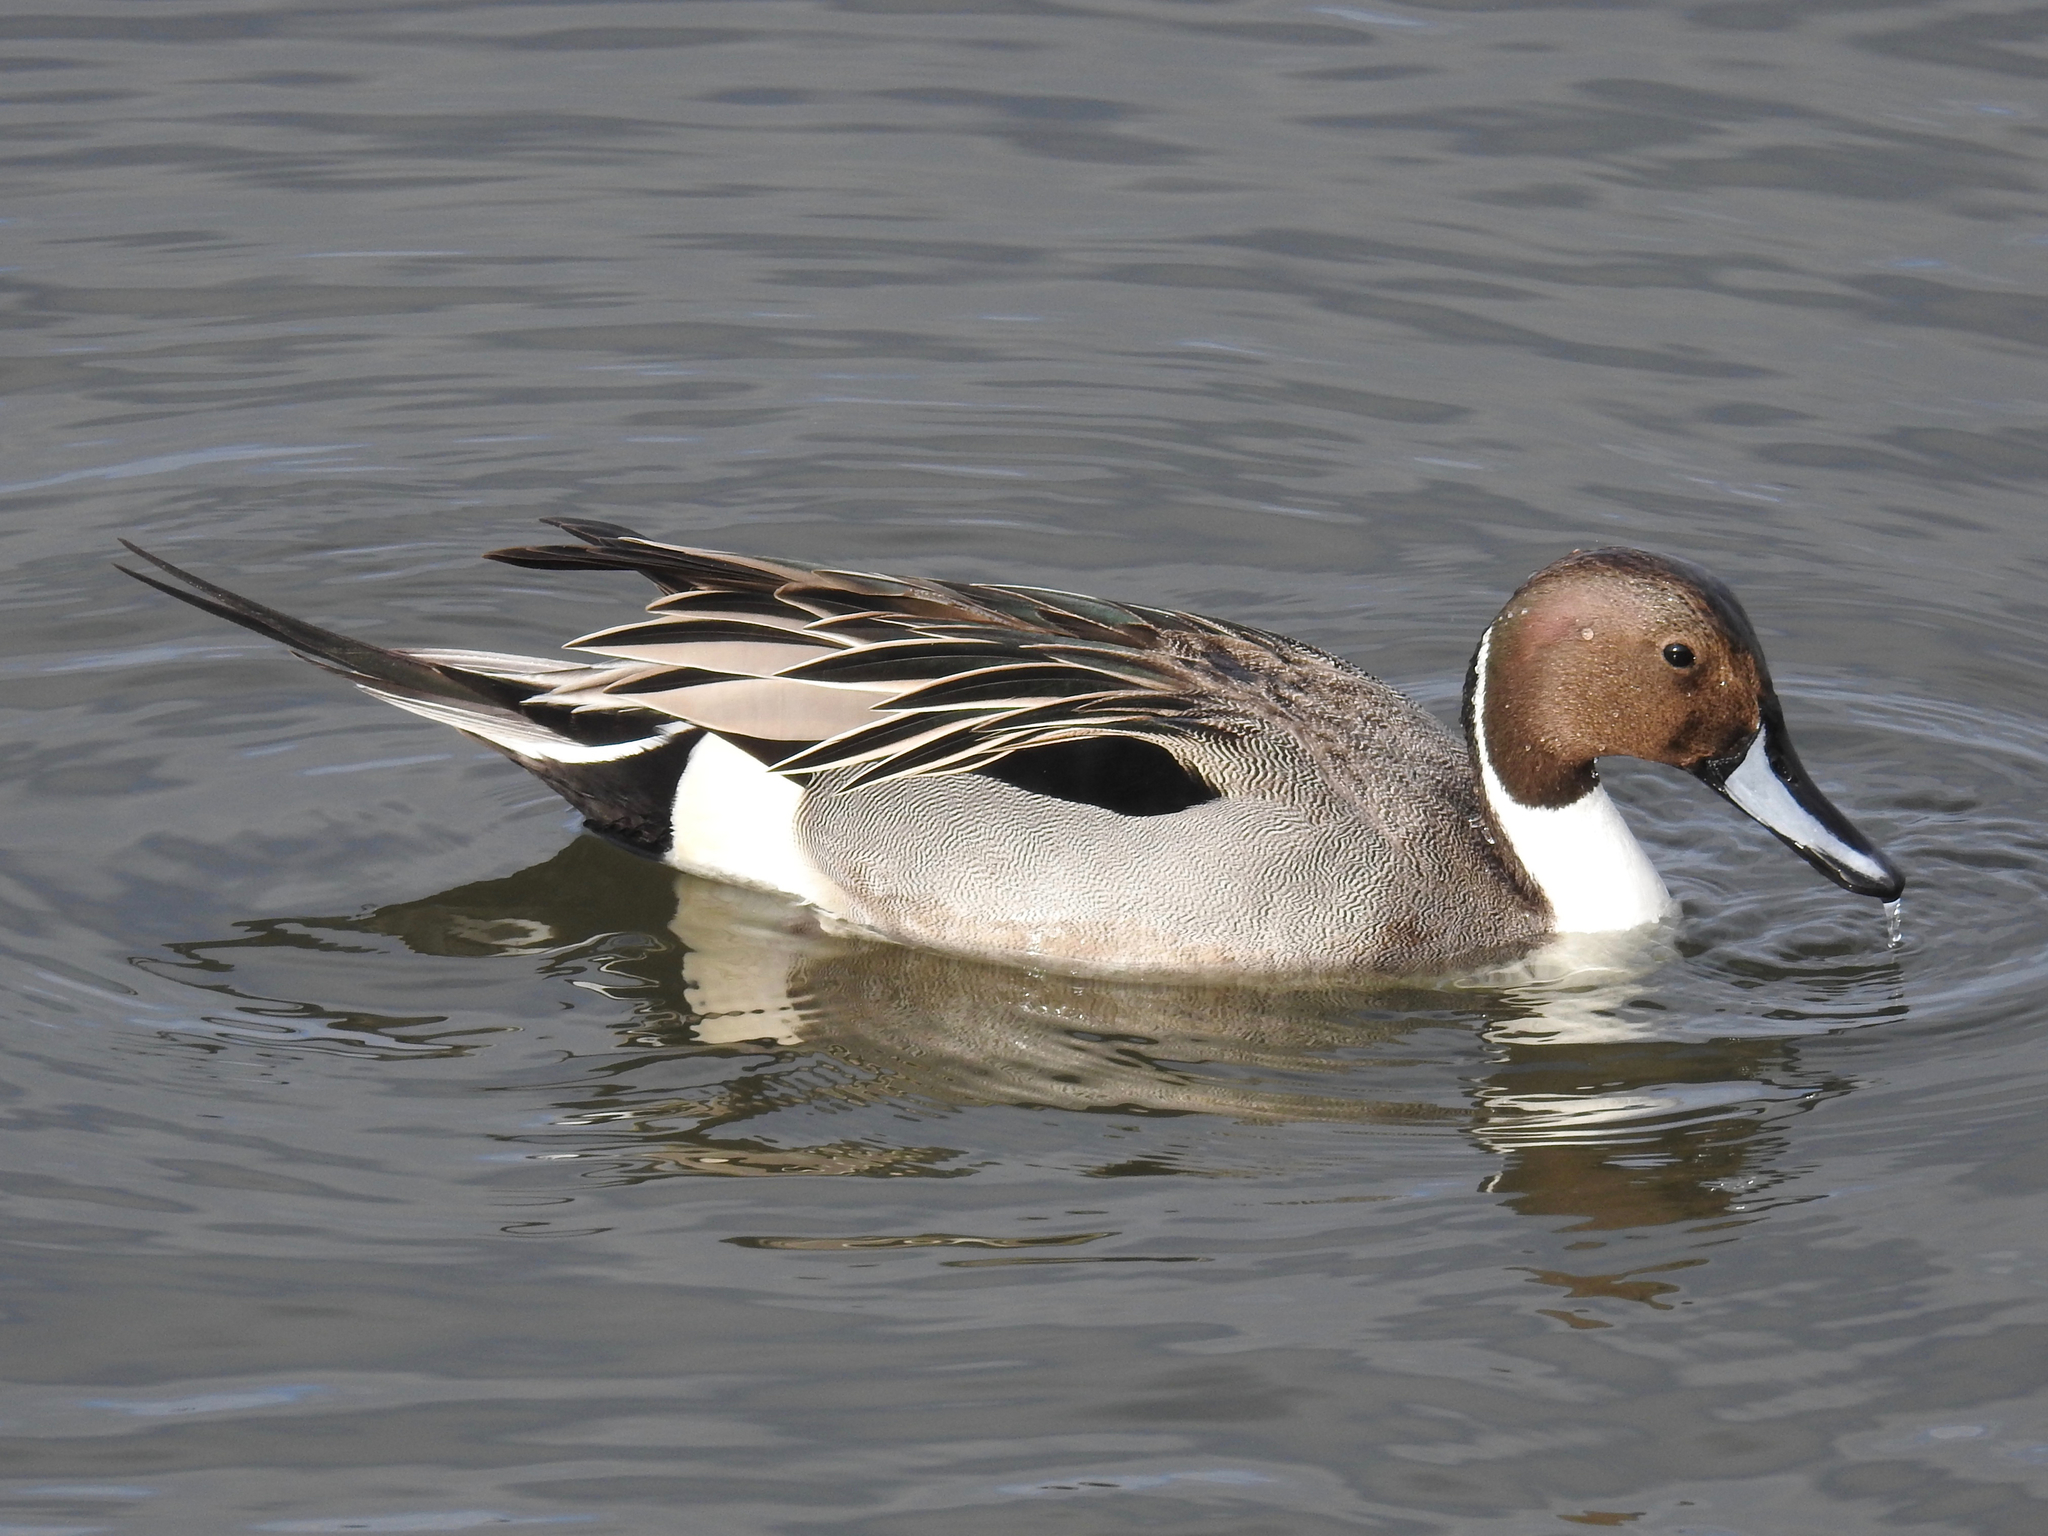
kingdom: Animalia
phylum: Chordata
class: Aves
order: Anseriformes
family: Anatidae
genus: Anas
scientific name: Anas acuta
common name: Northern pintail
